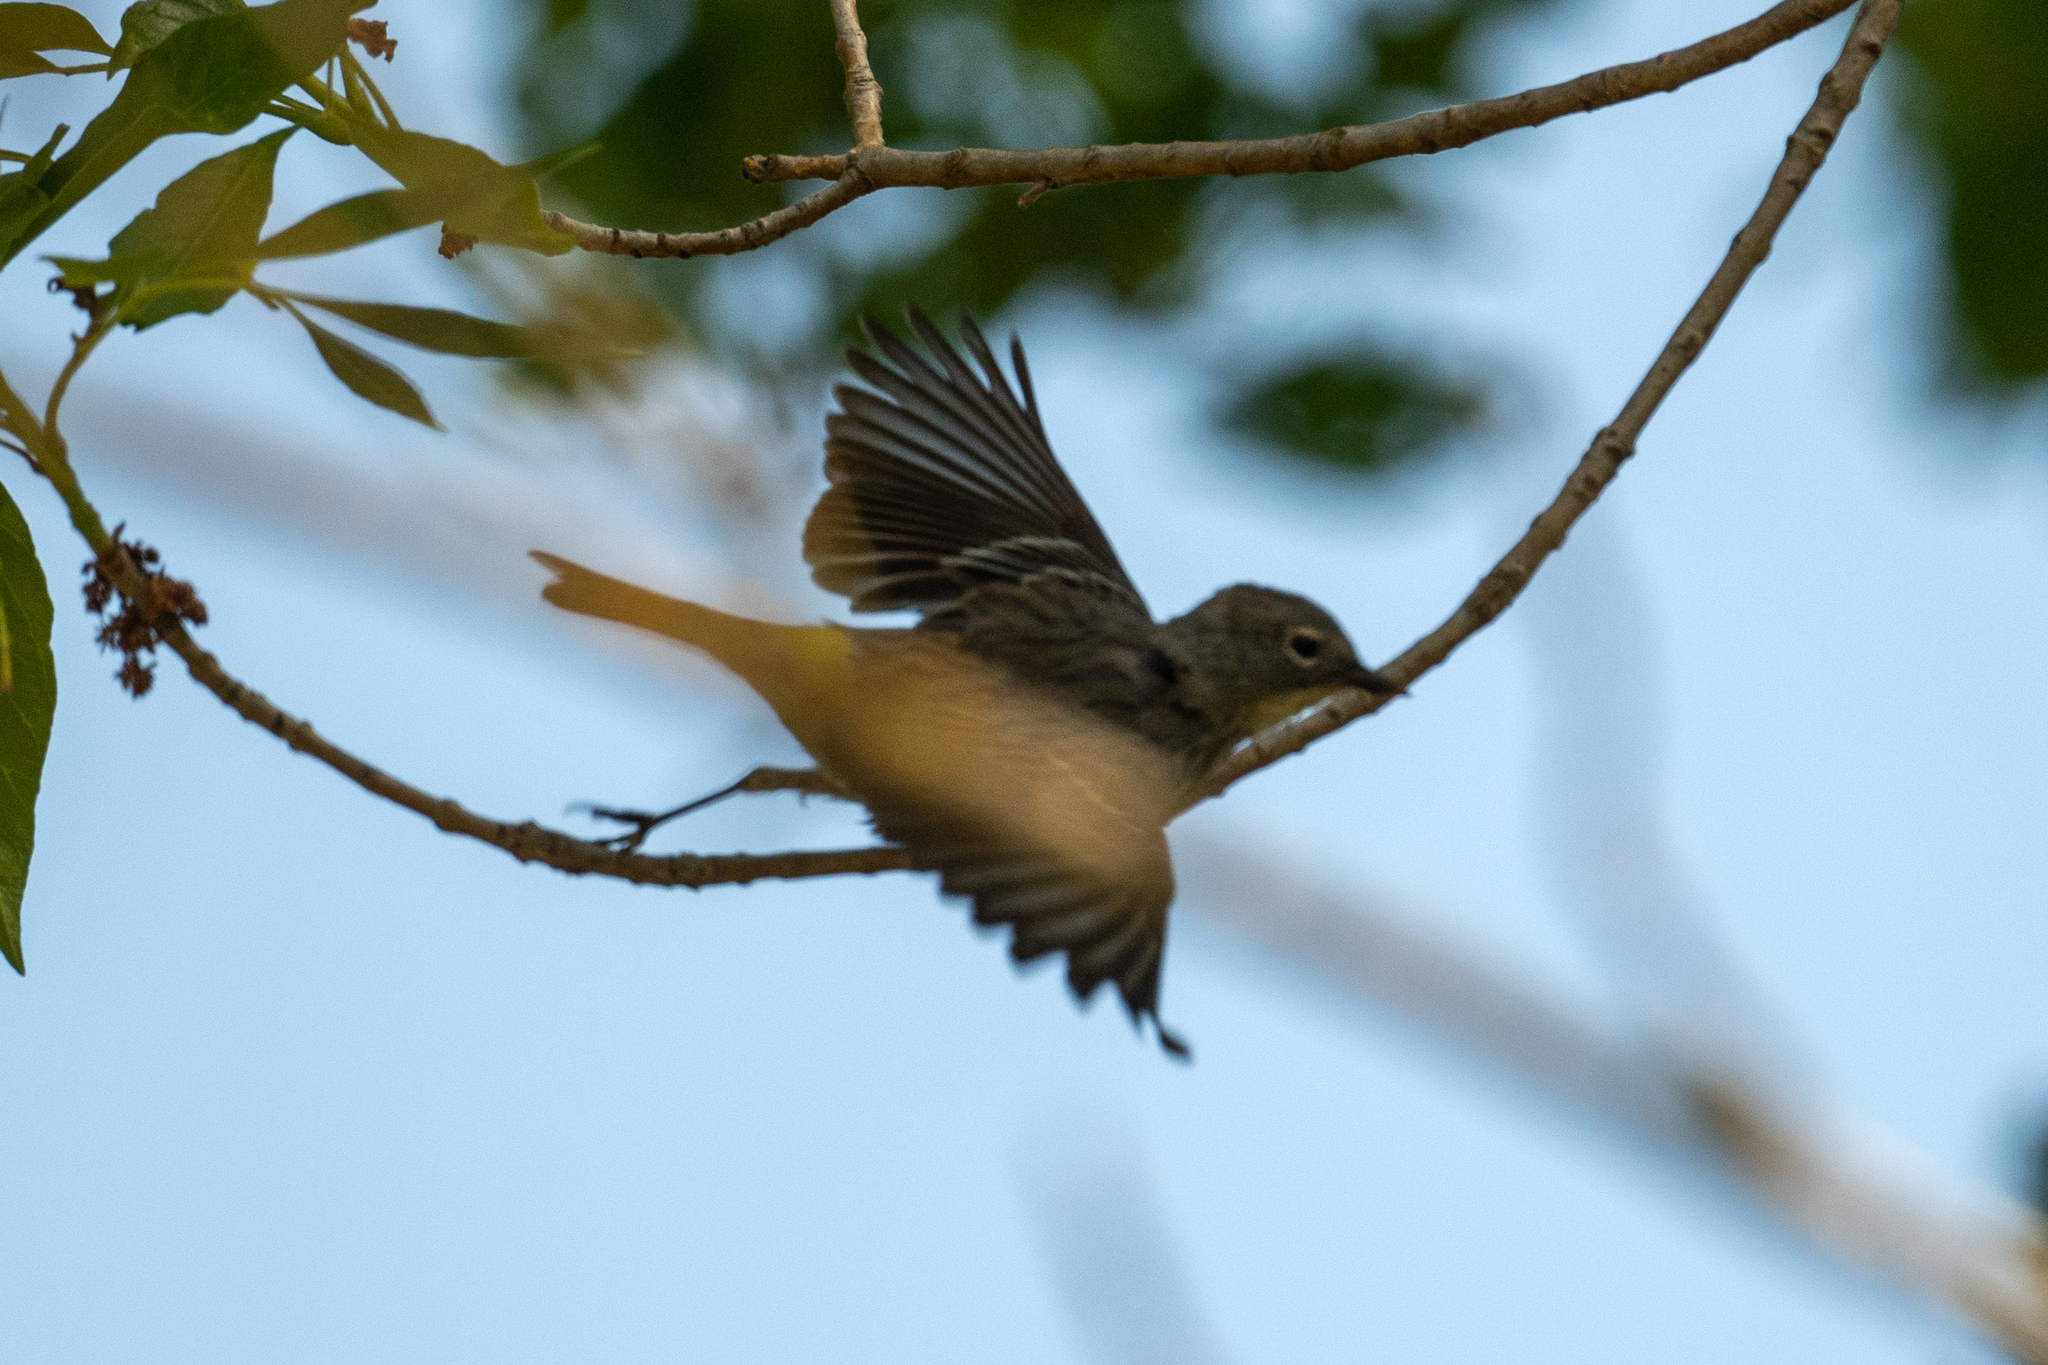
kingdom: Animalia
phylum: Chordata
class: Aves
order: Passeriformes
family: Parulidae
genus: Setophaga
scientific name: Setophaga coronata
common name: Myrtle warbler
